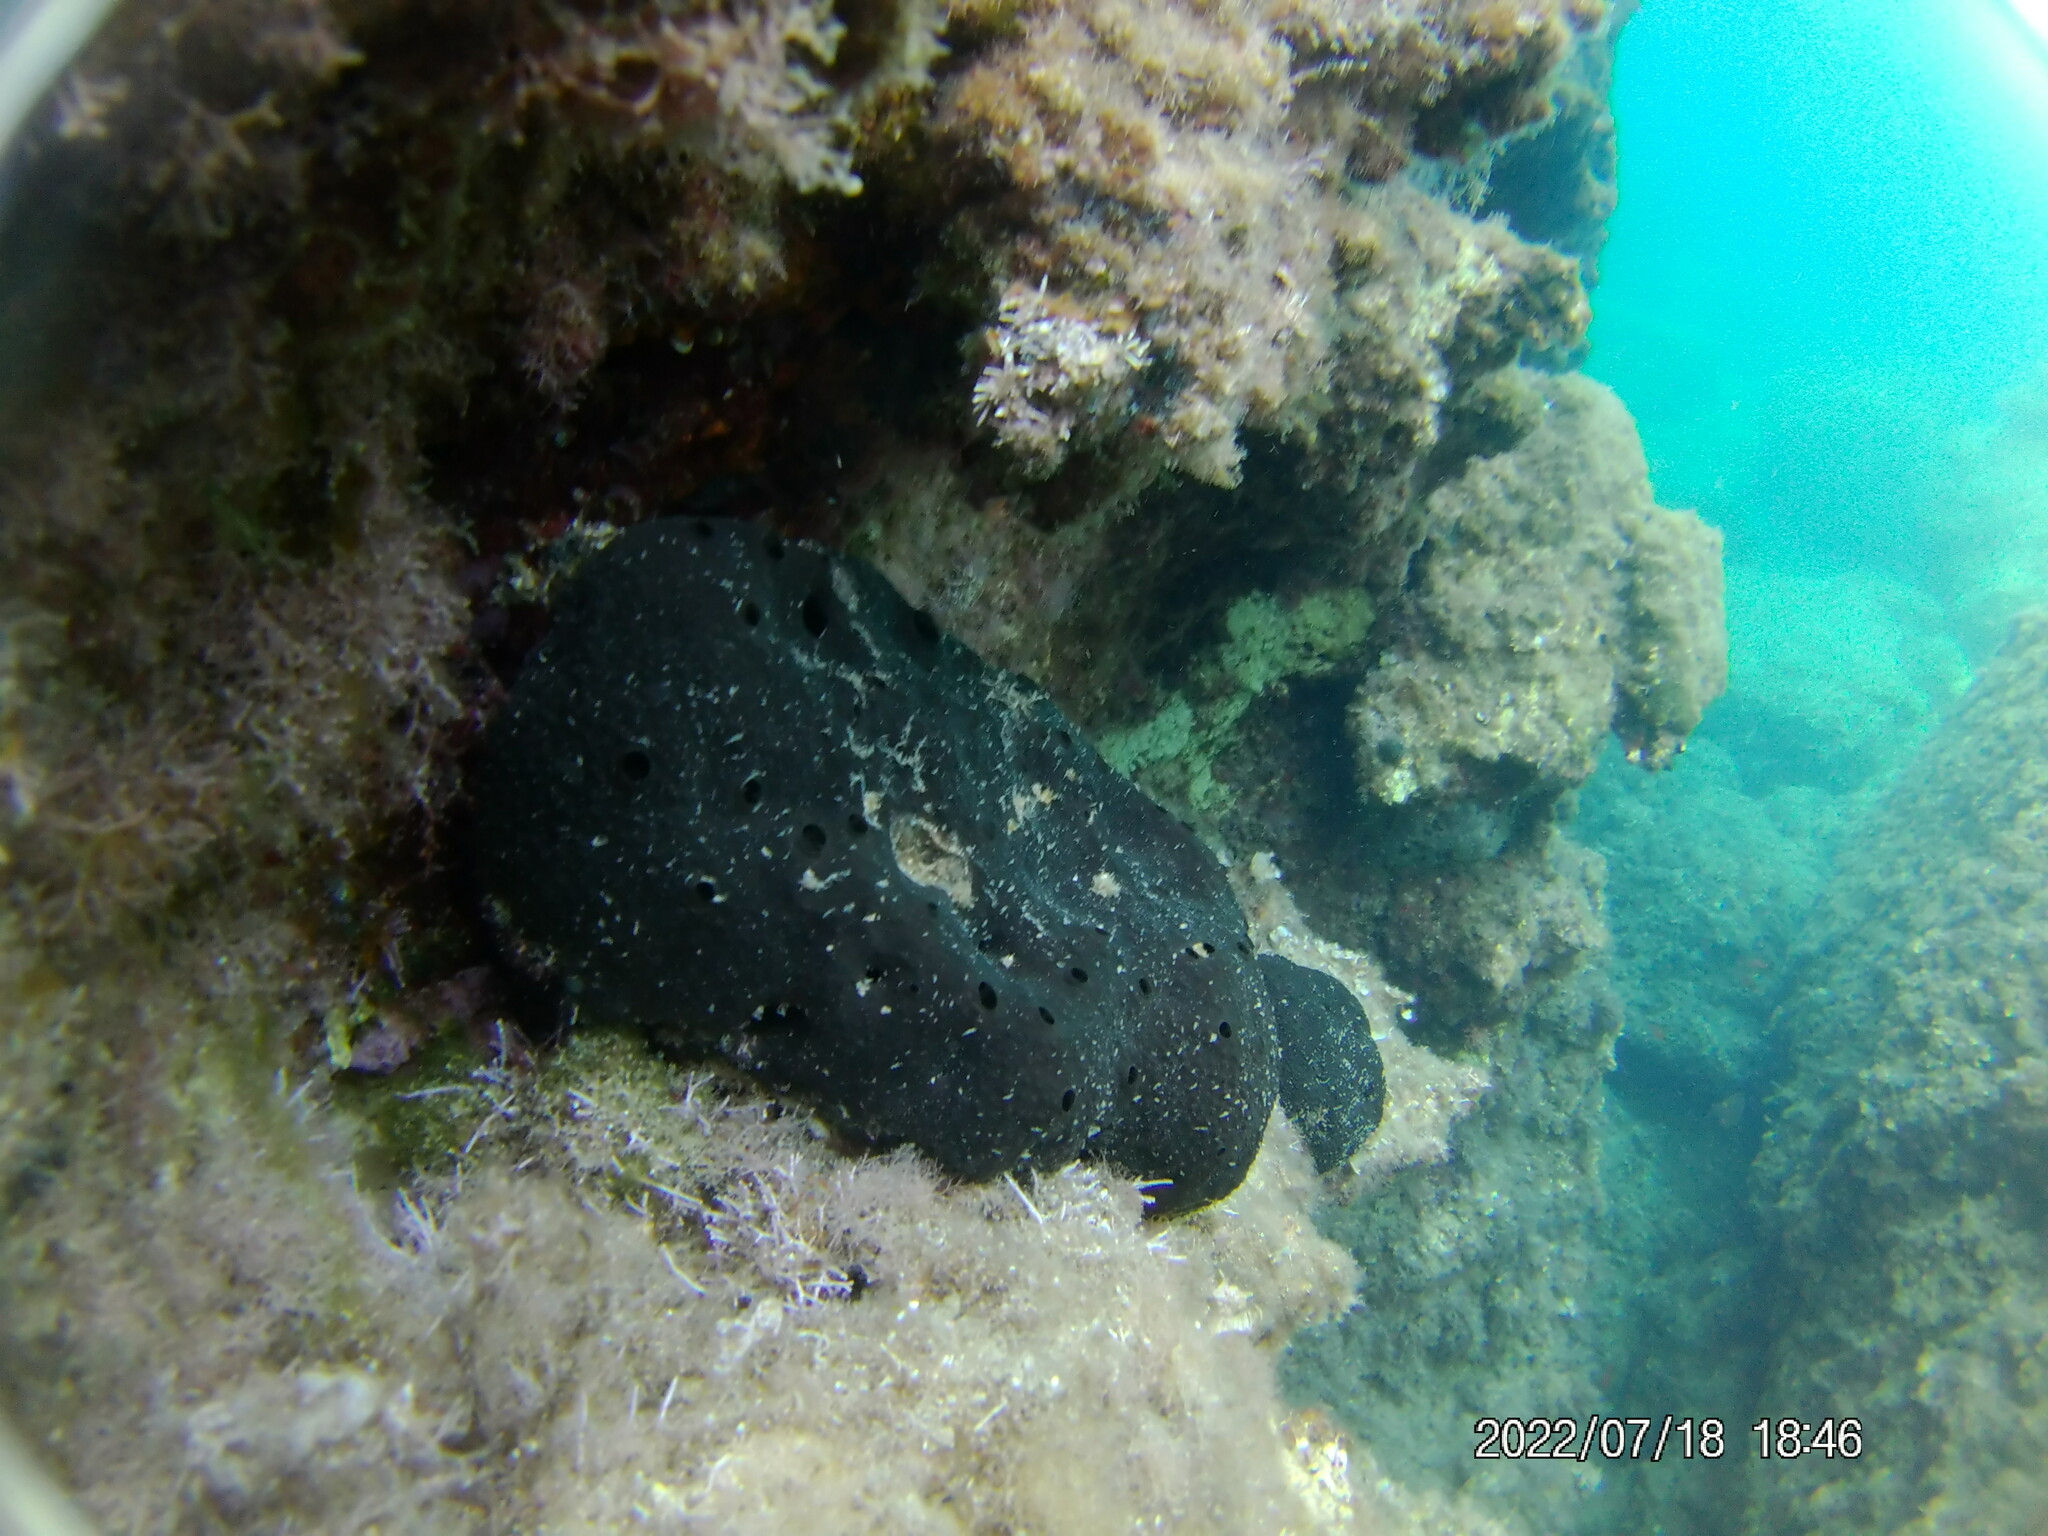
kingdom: Animalia
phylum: Porifera
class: Demospongiae
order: Dictyoceratida
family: Irciniidae
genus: Sarcotragus
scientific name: Sarcotragus spinosulus
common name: Black leather sponge
